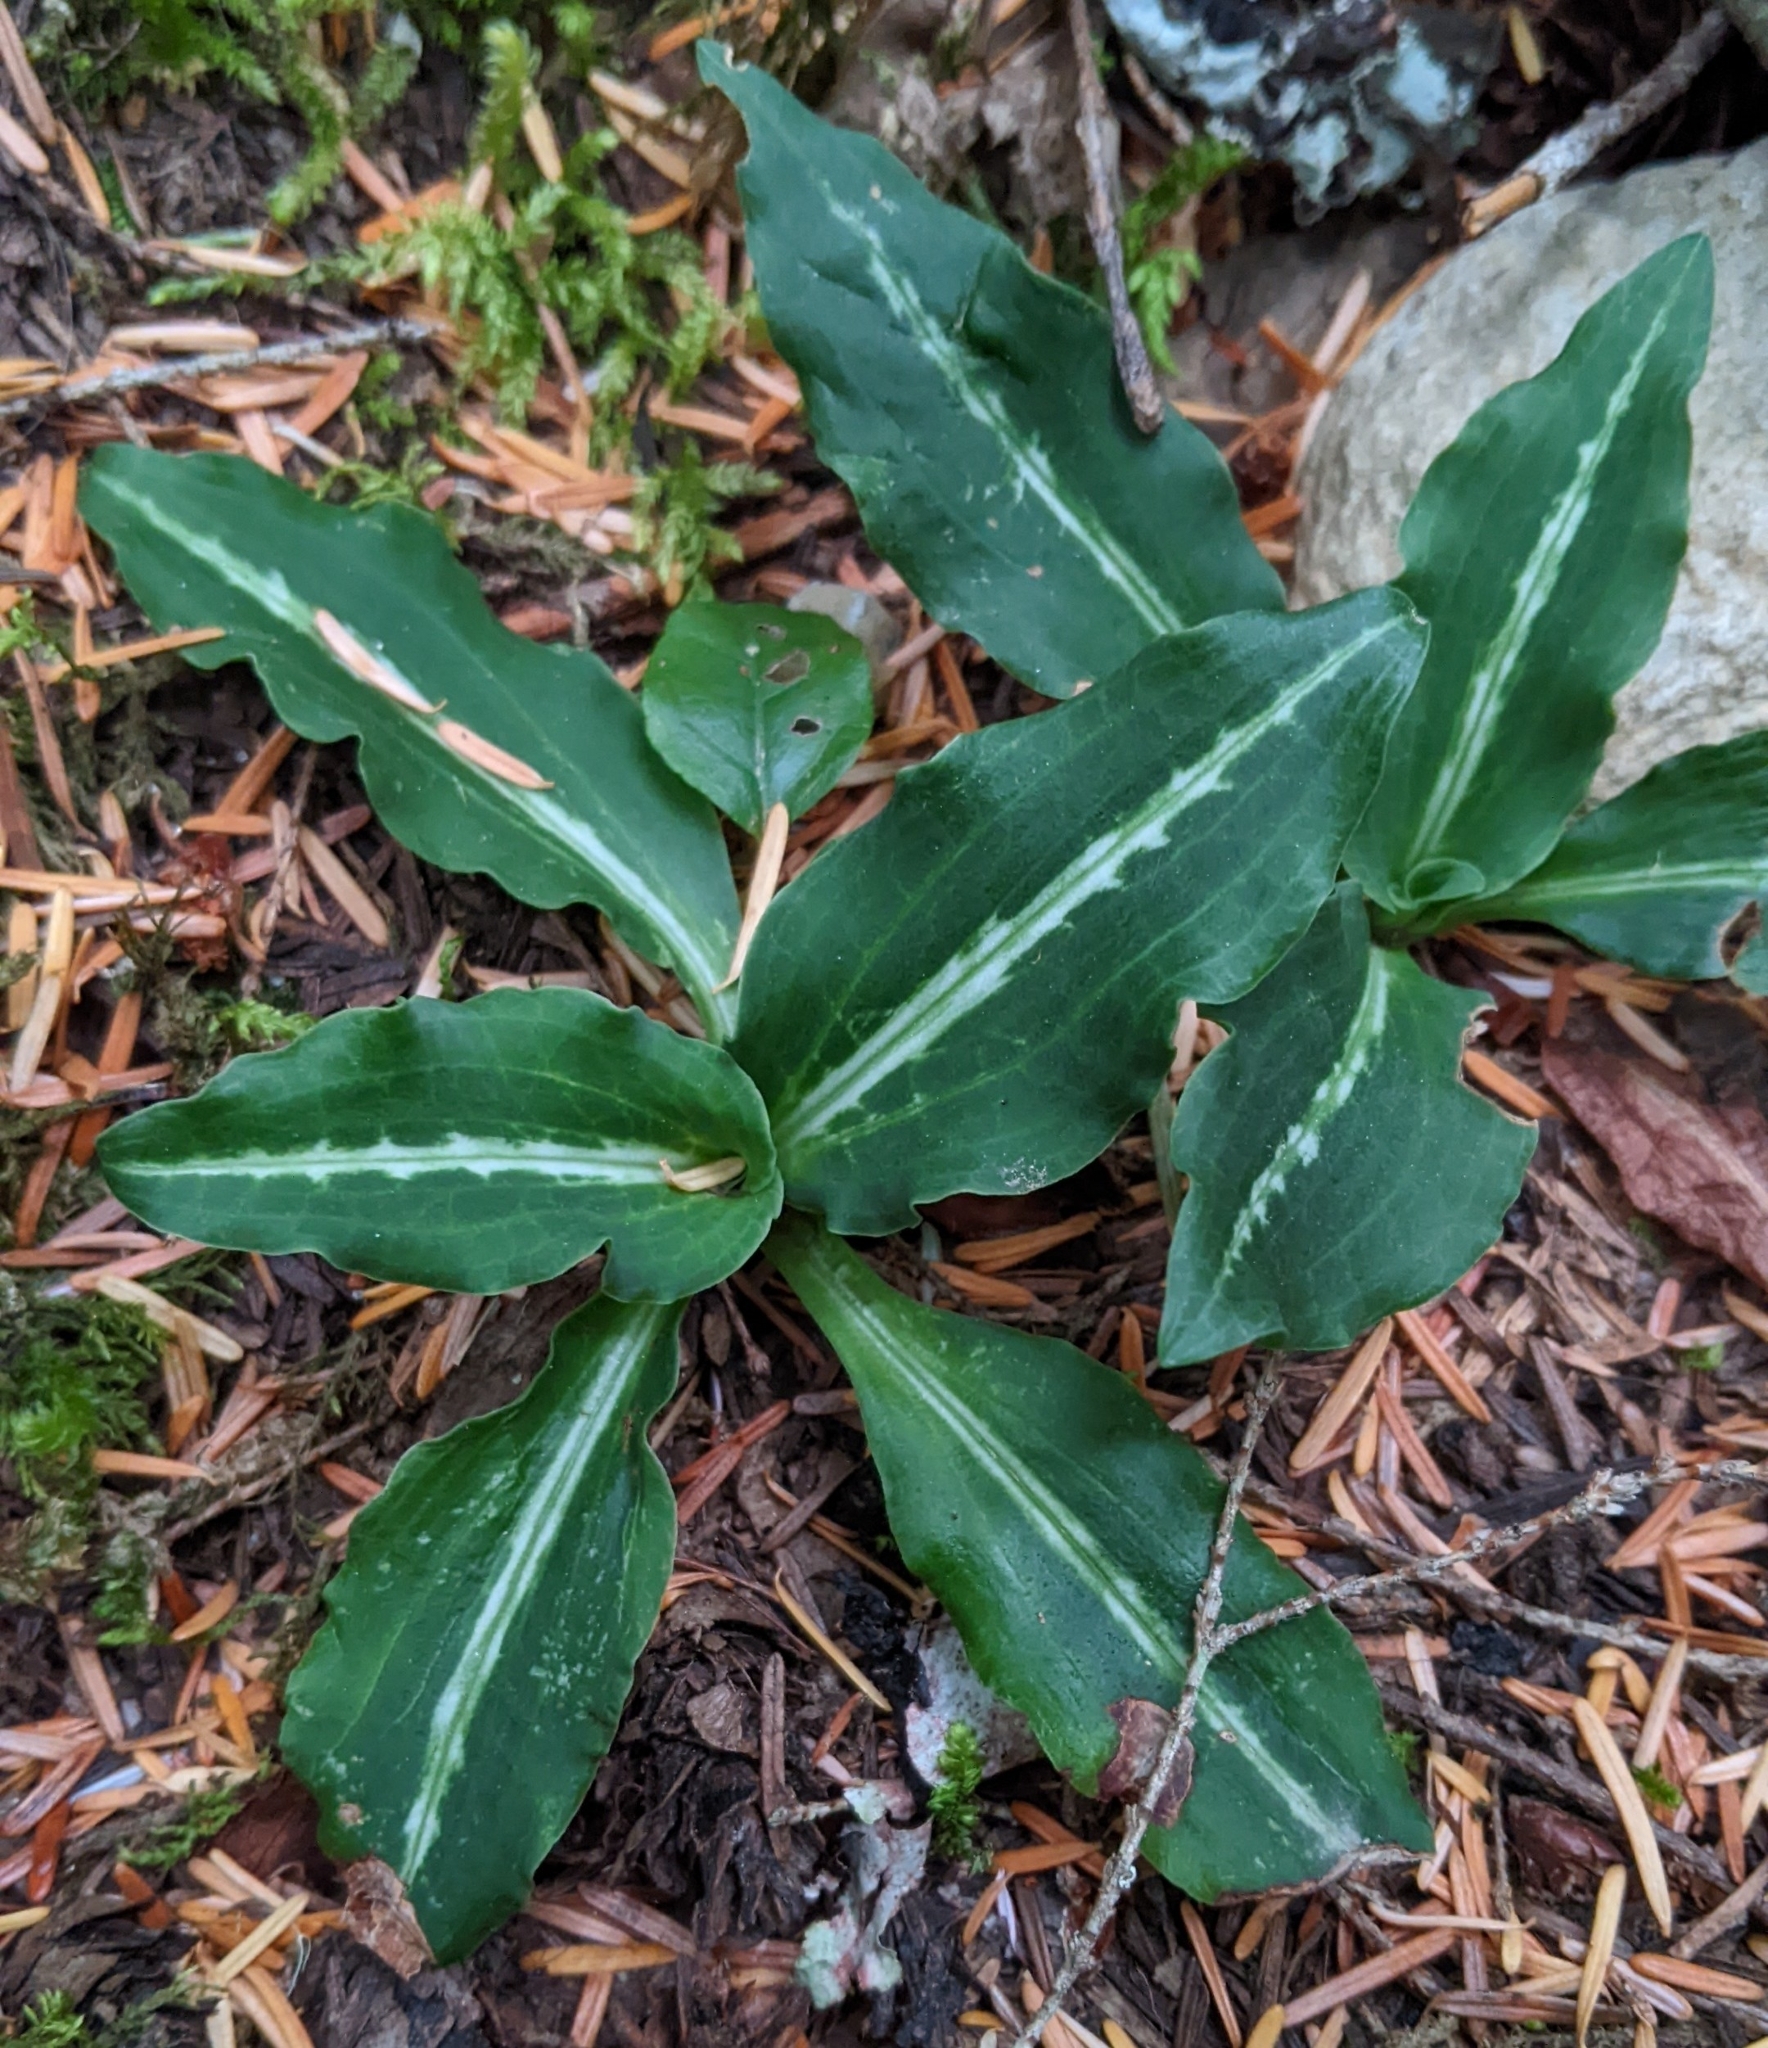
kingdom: Plantae
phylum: Tracheophyta
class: Liliopsida
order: Asparagales
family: Orchidaceae
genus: Goodyera
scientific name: Goodyera oblongifolia
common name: Giant rattlesnake-plantain
